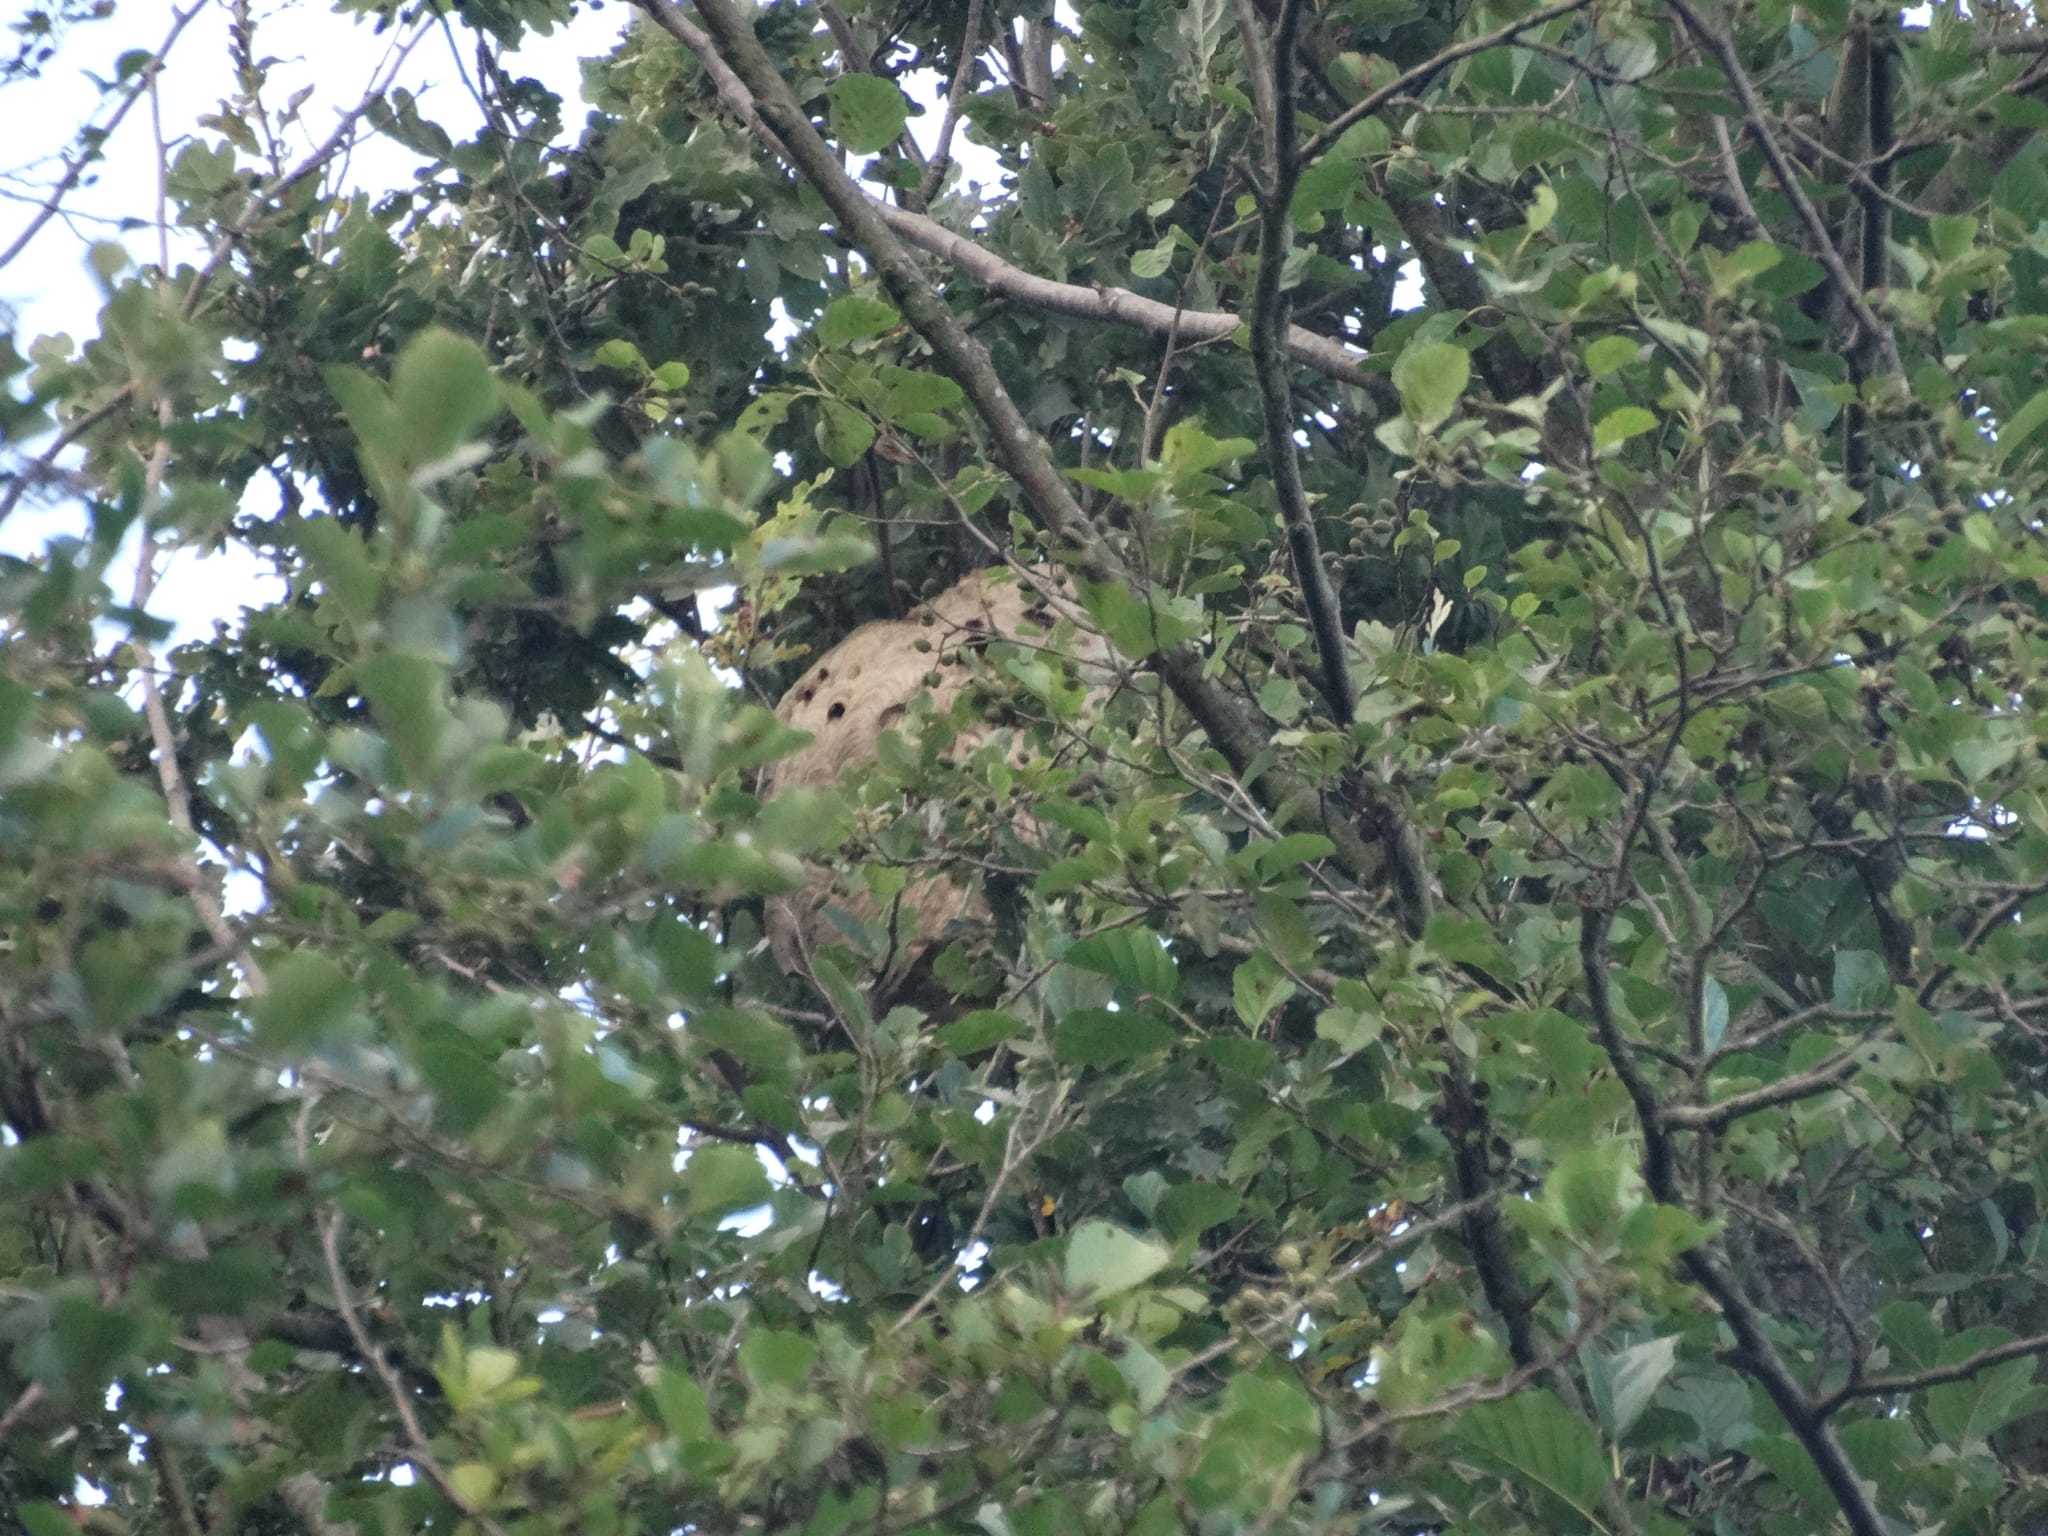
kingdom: Animalia
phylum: Arthropoda
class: Insecta
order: Hymenoptera
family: Vespidae
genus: Vespa
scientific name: Vespa velutina
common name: Asian hornet
